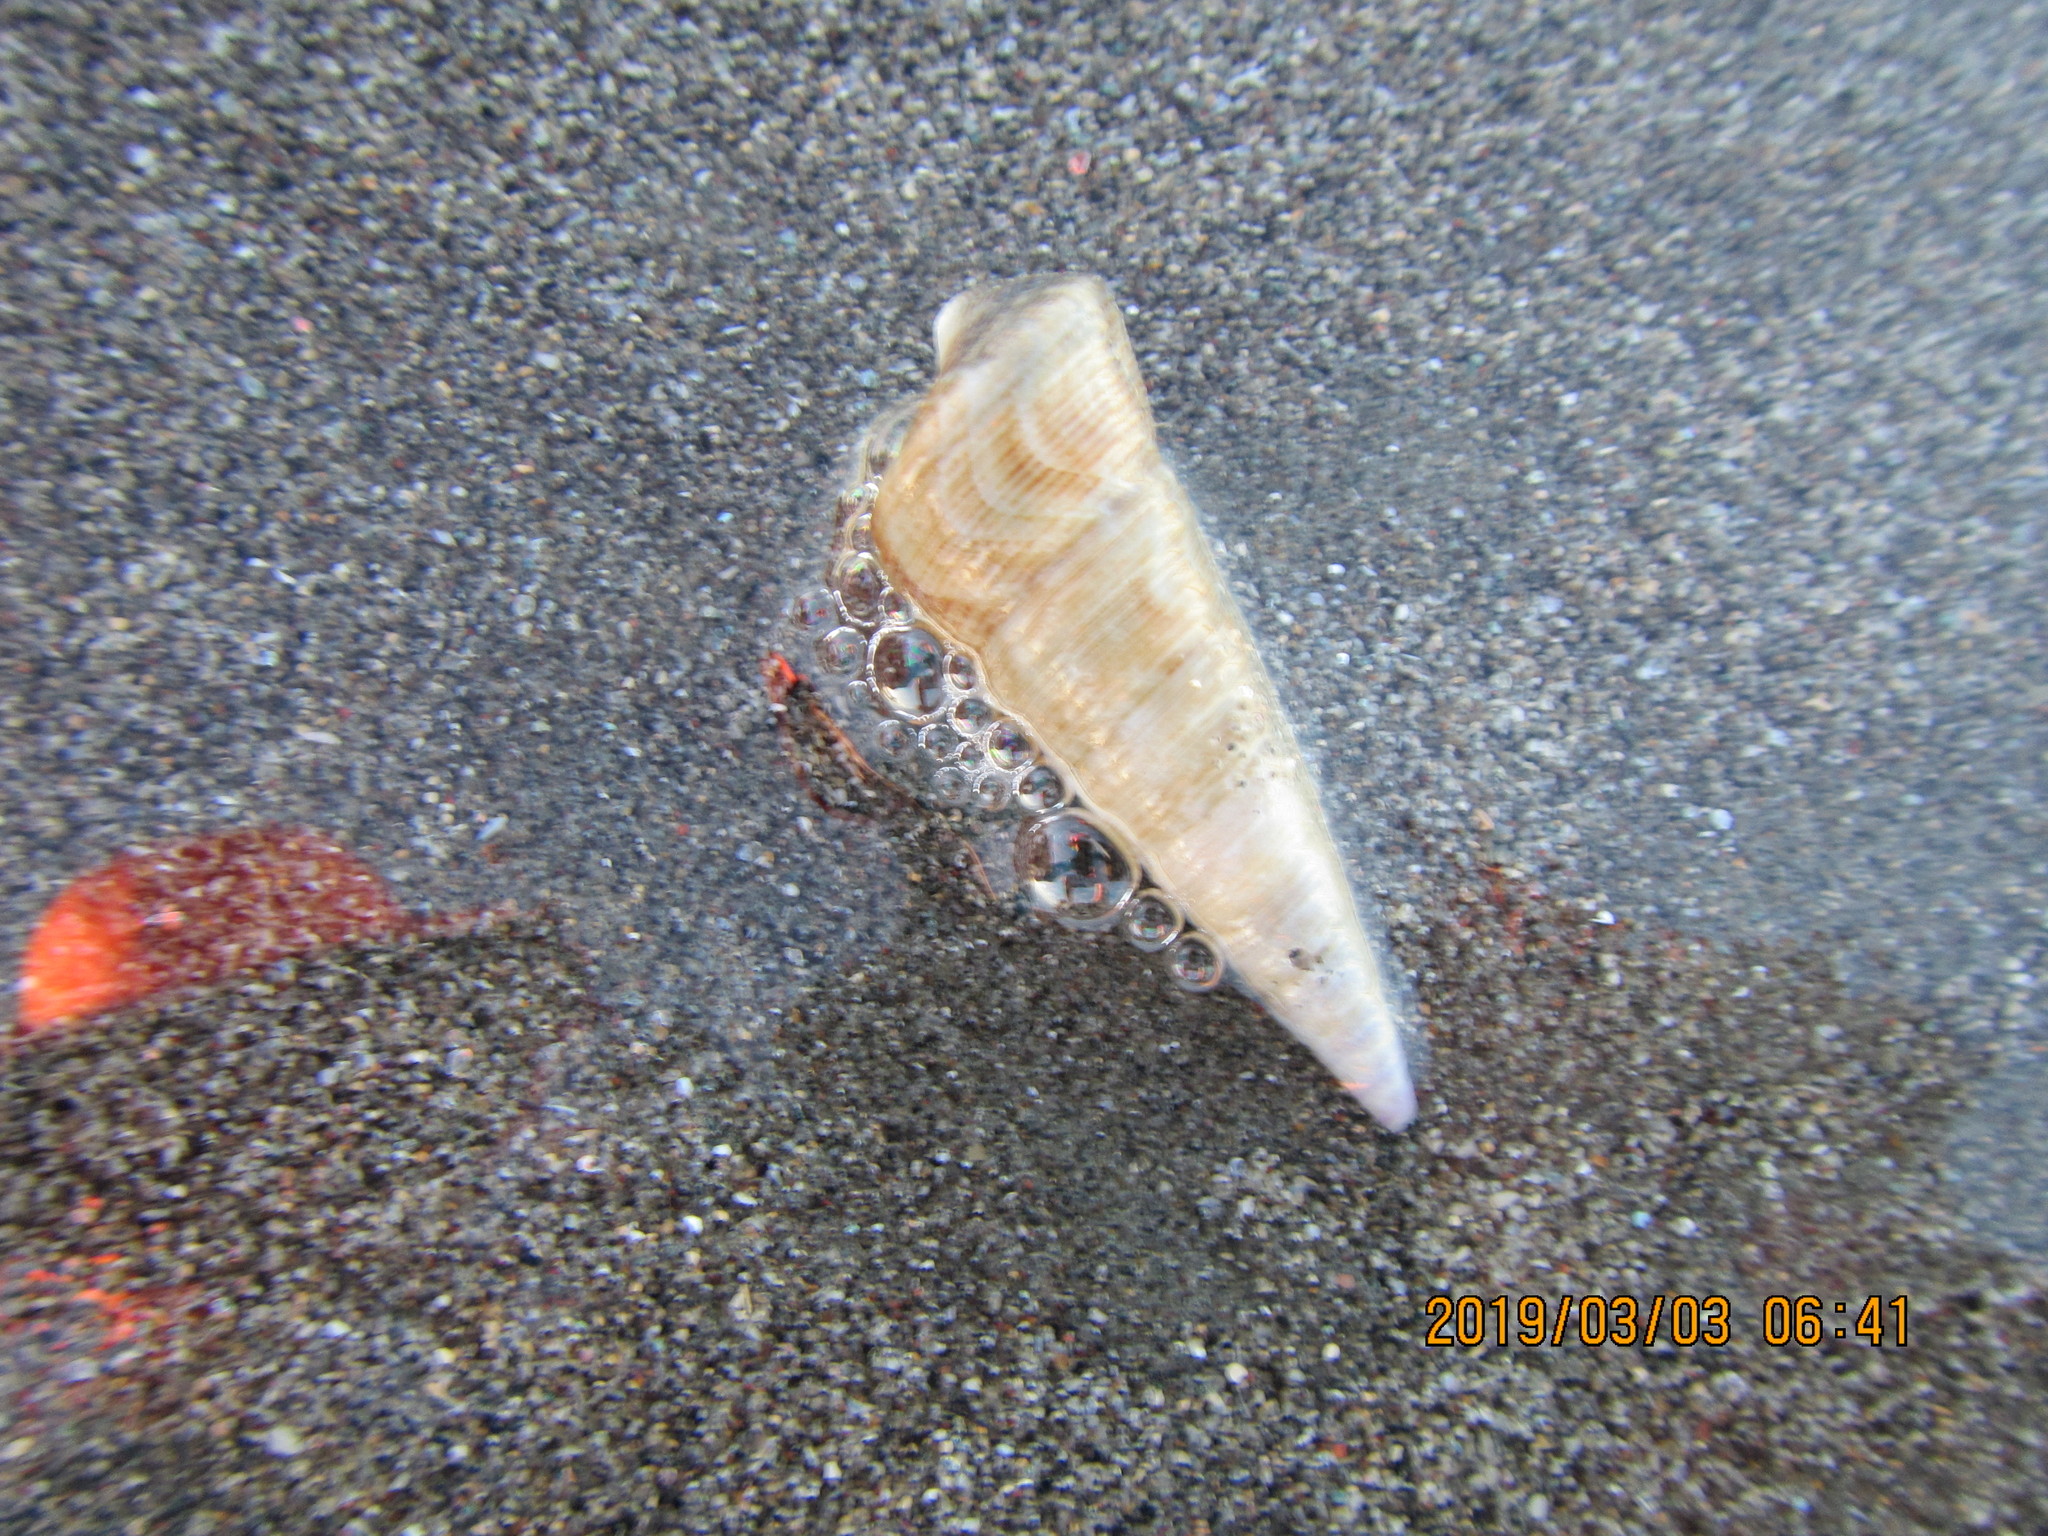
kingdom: Animalia
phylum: Mollusca
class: Gastropoda
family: Turritellidae
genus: Maoricolpus
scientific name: Maoricolpus roseus
